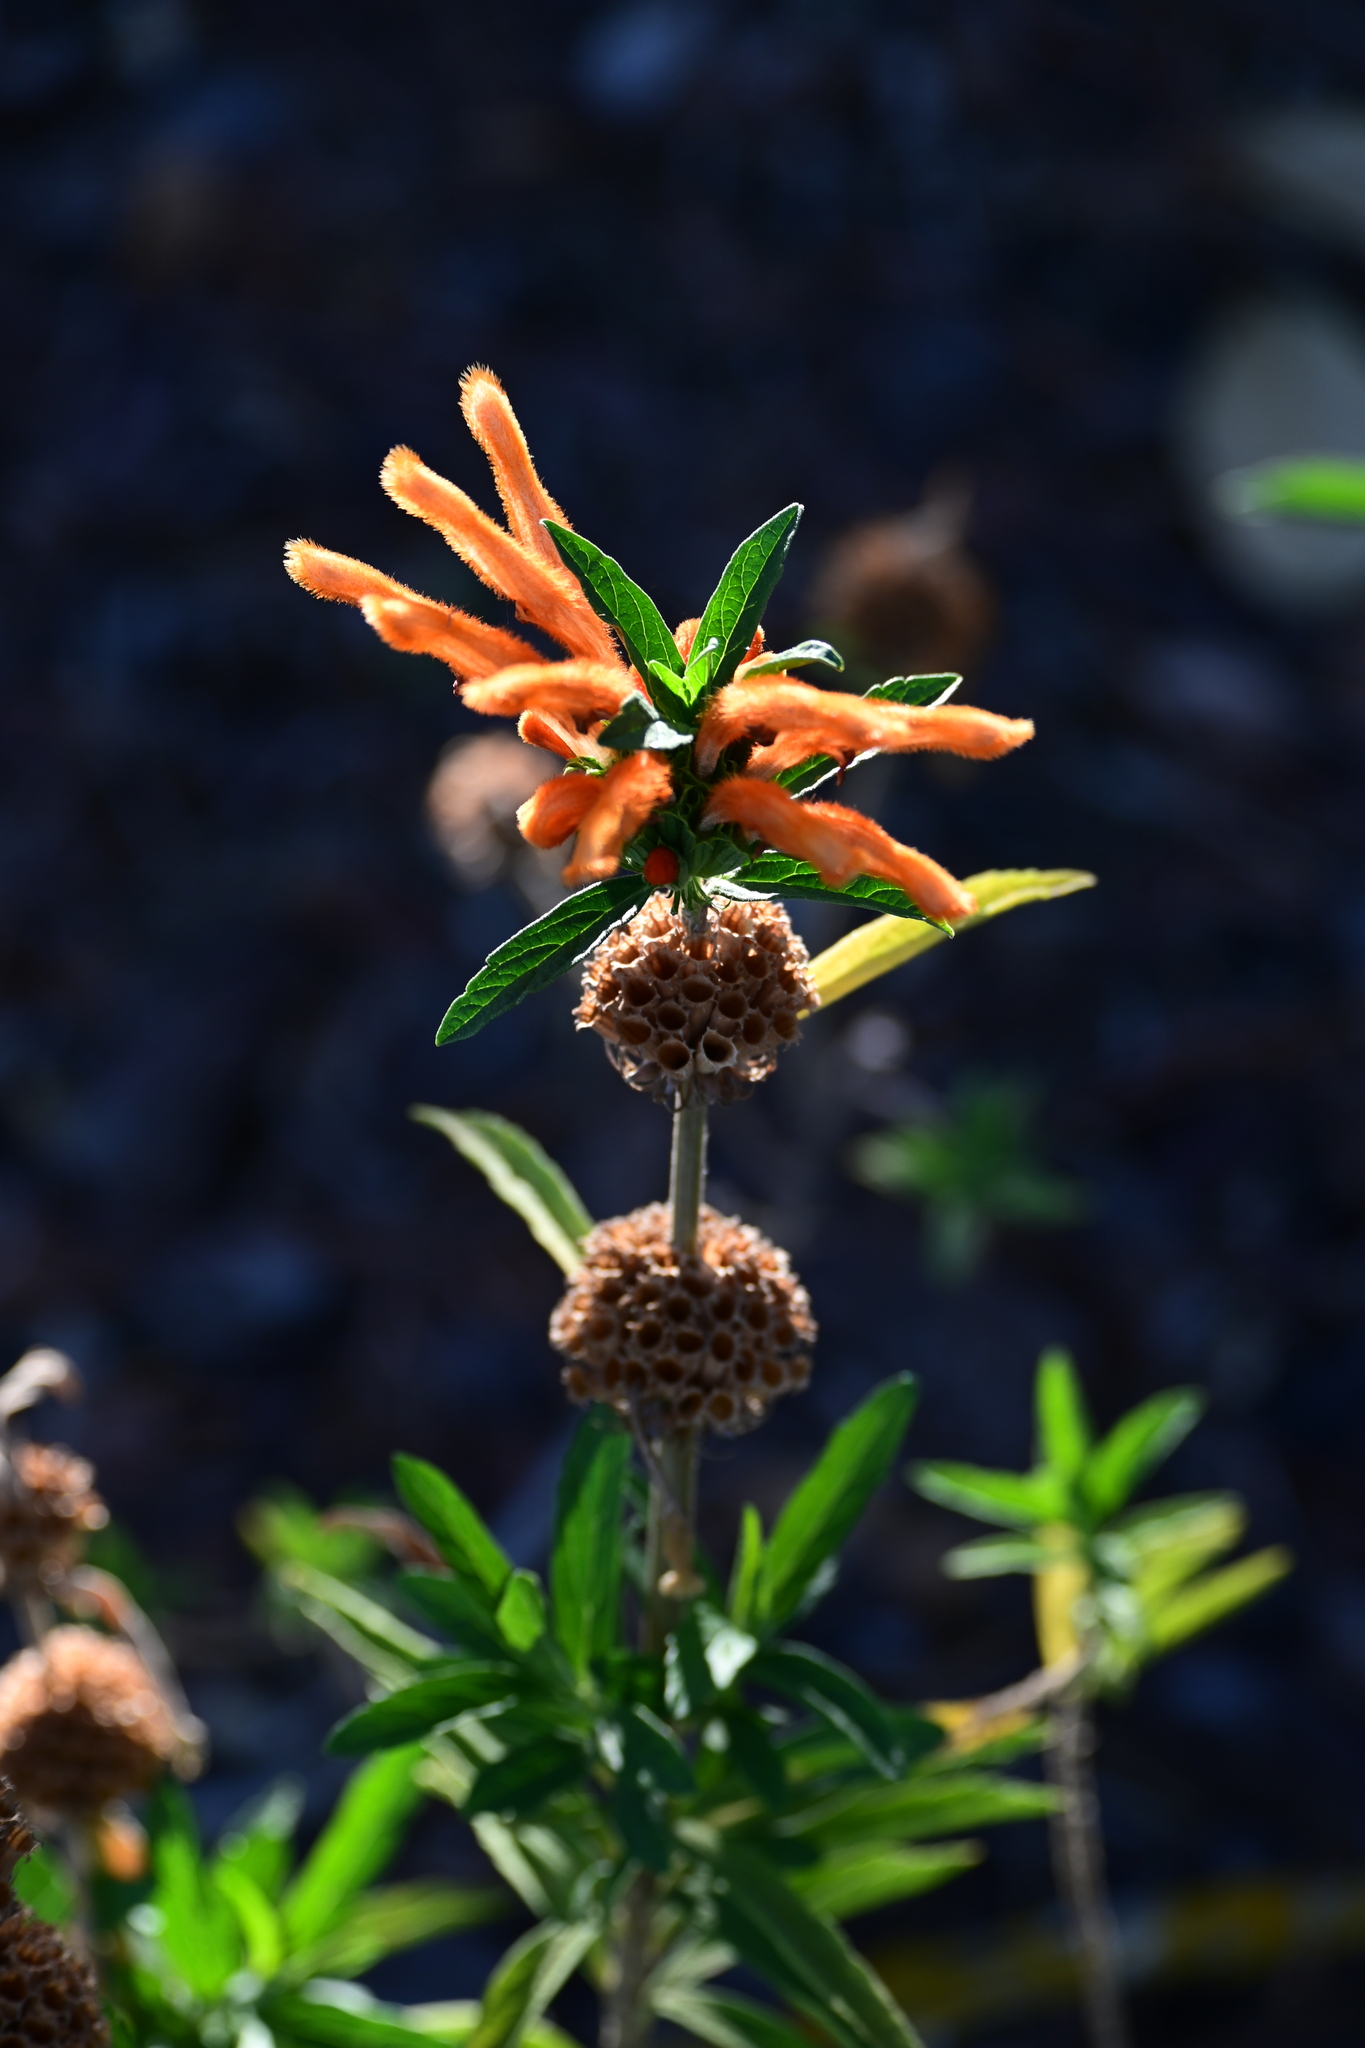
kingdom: Plantae
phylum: Tracheophyta
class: Magnoliopsida
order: Lamiales
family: Lamiaceae
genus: Leonotis
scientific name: Leonotis leonurus
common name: Lion's ear
